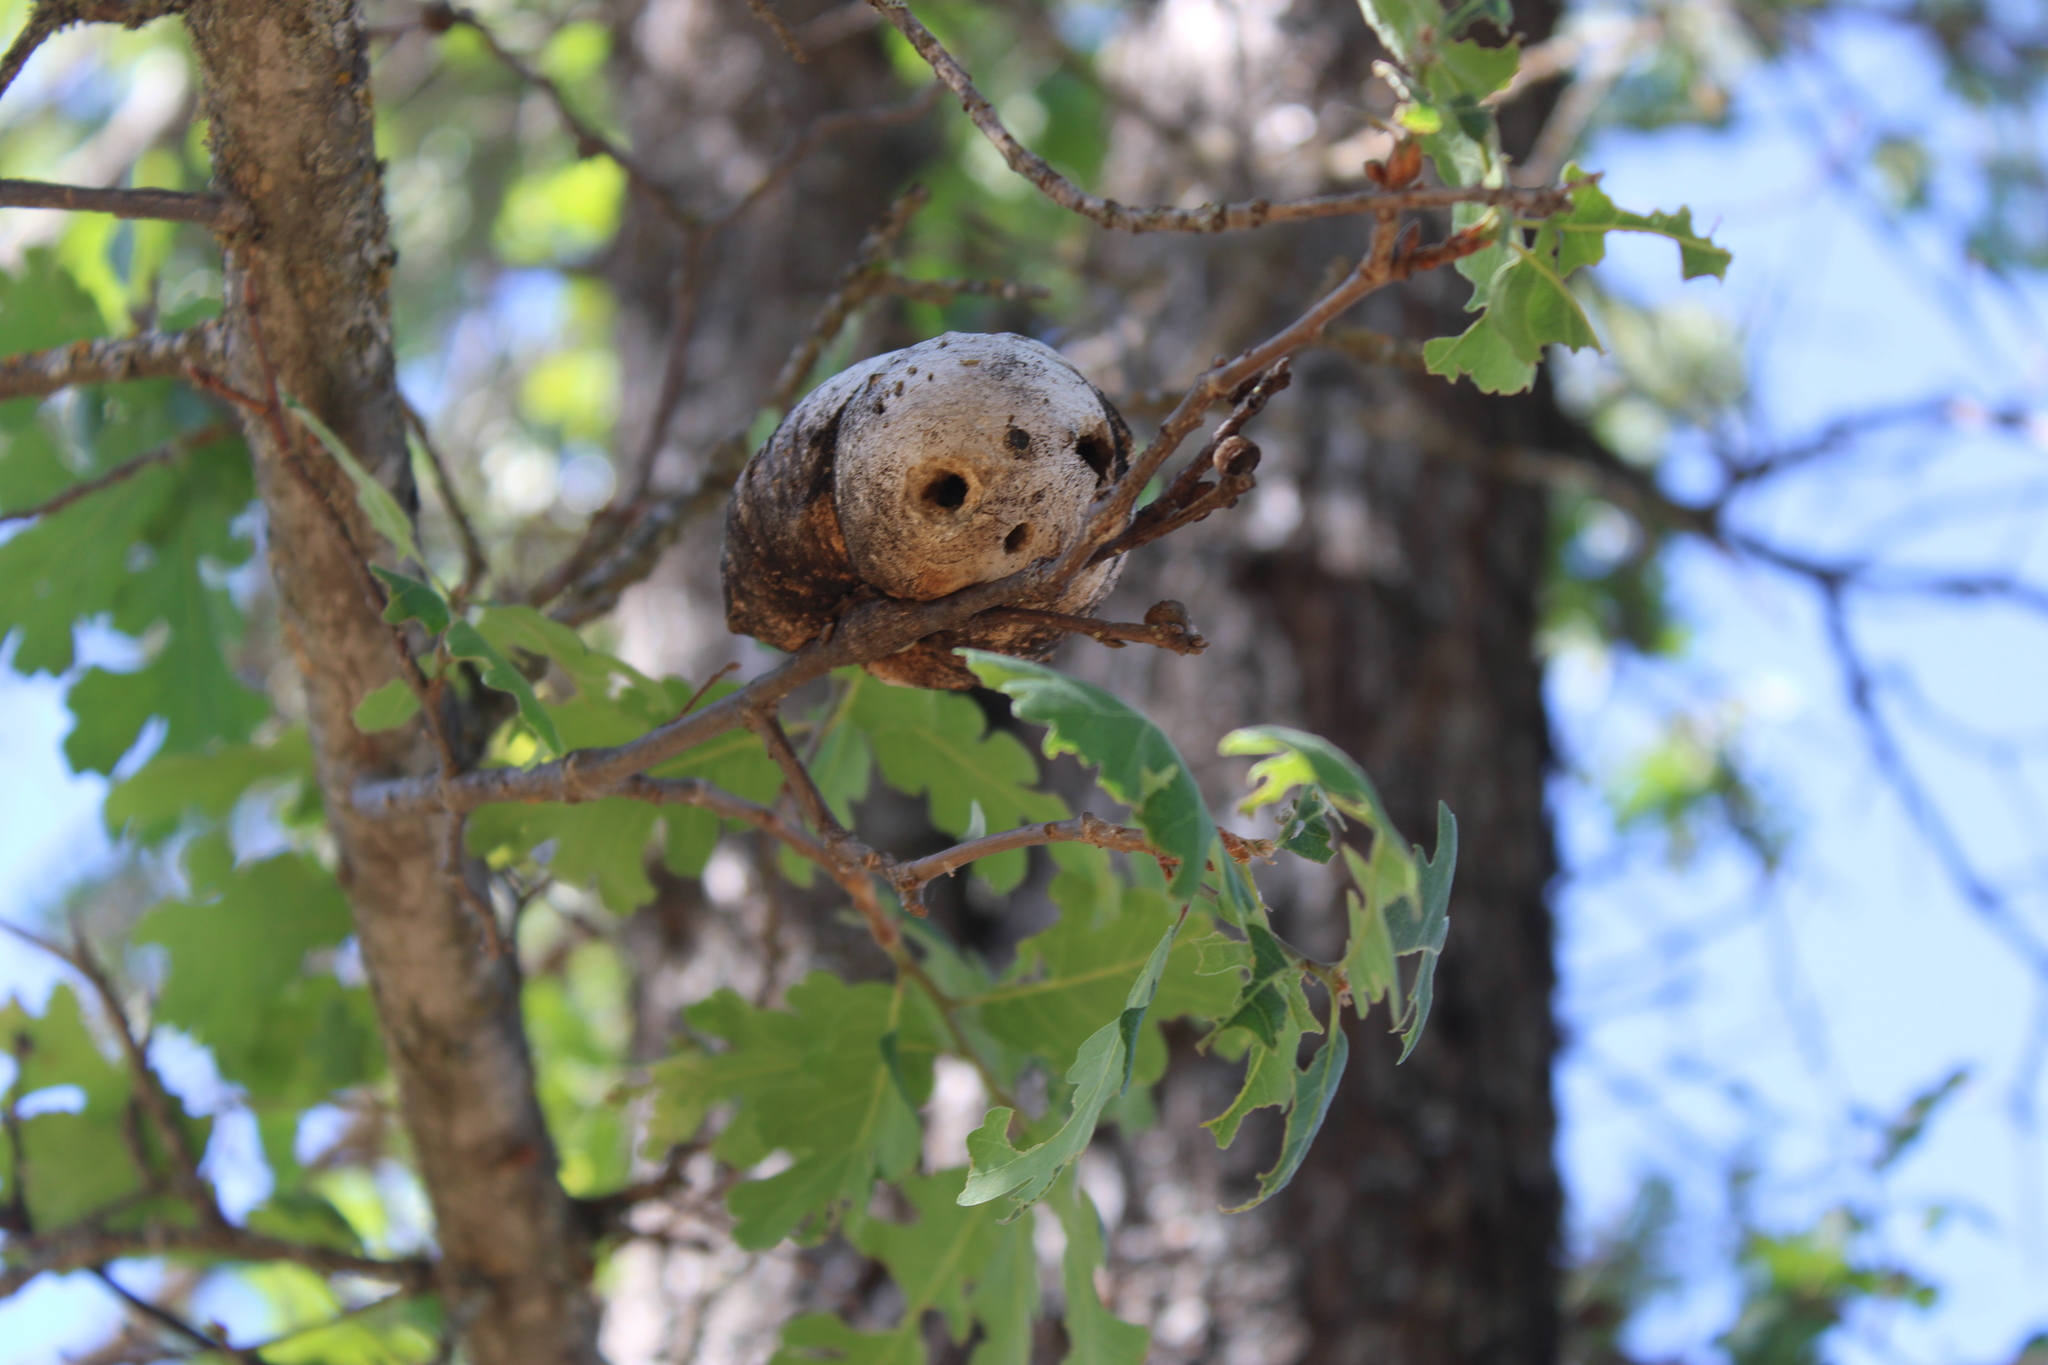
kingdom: Animalia
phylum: Arthropoda
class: Insecta
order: Hymenoptera
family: Cynipidae
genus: Andricus
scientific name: Andricus quercuscalifornicus
